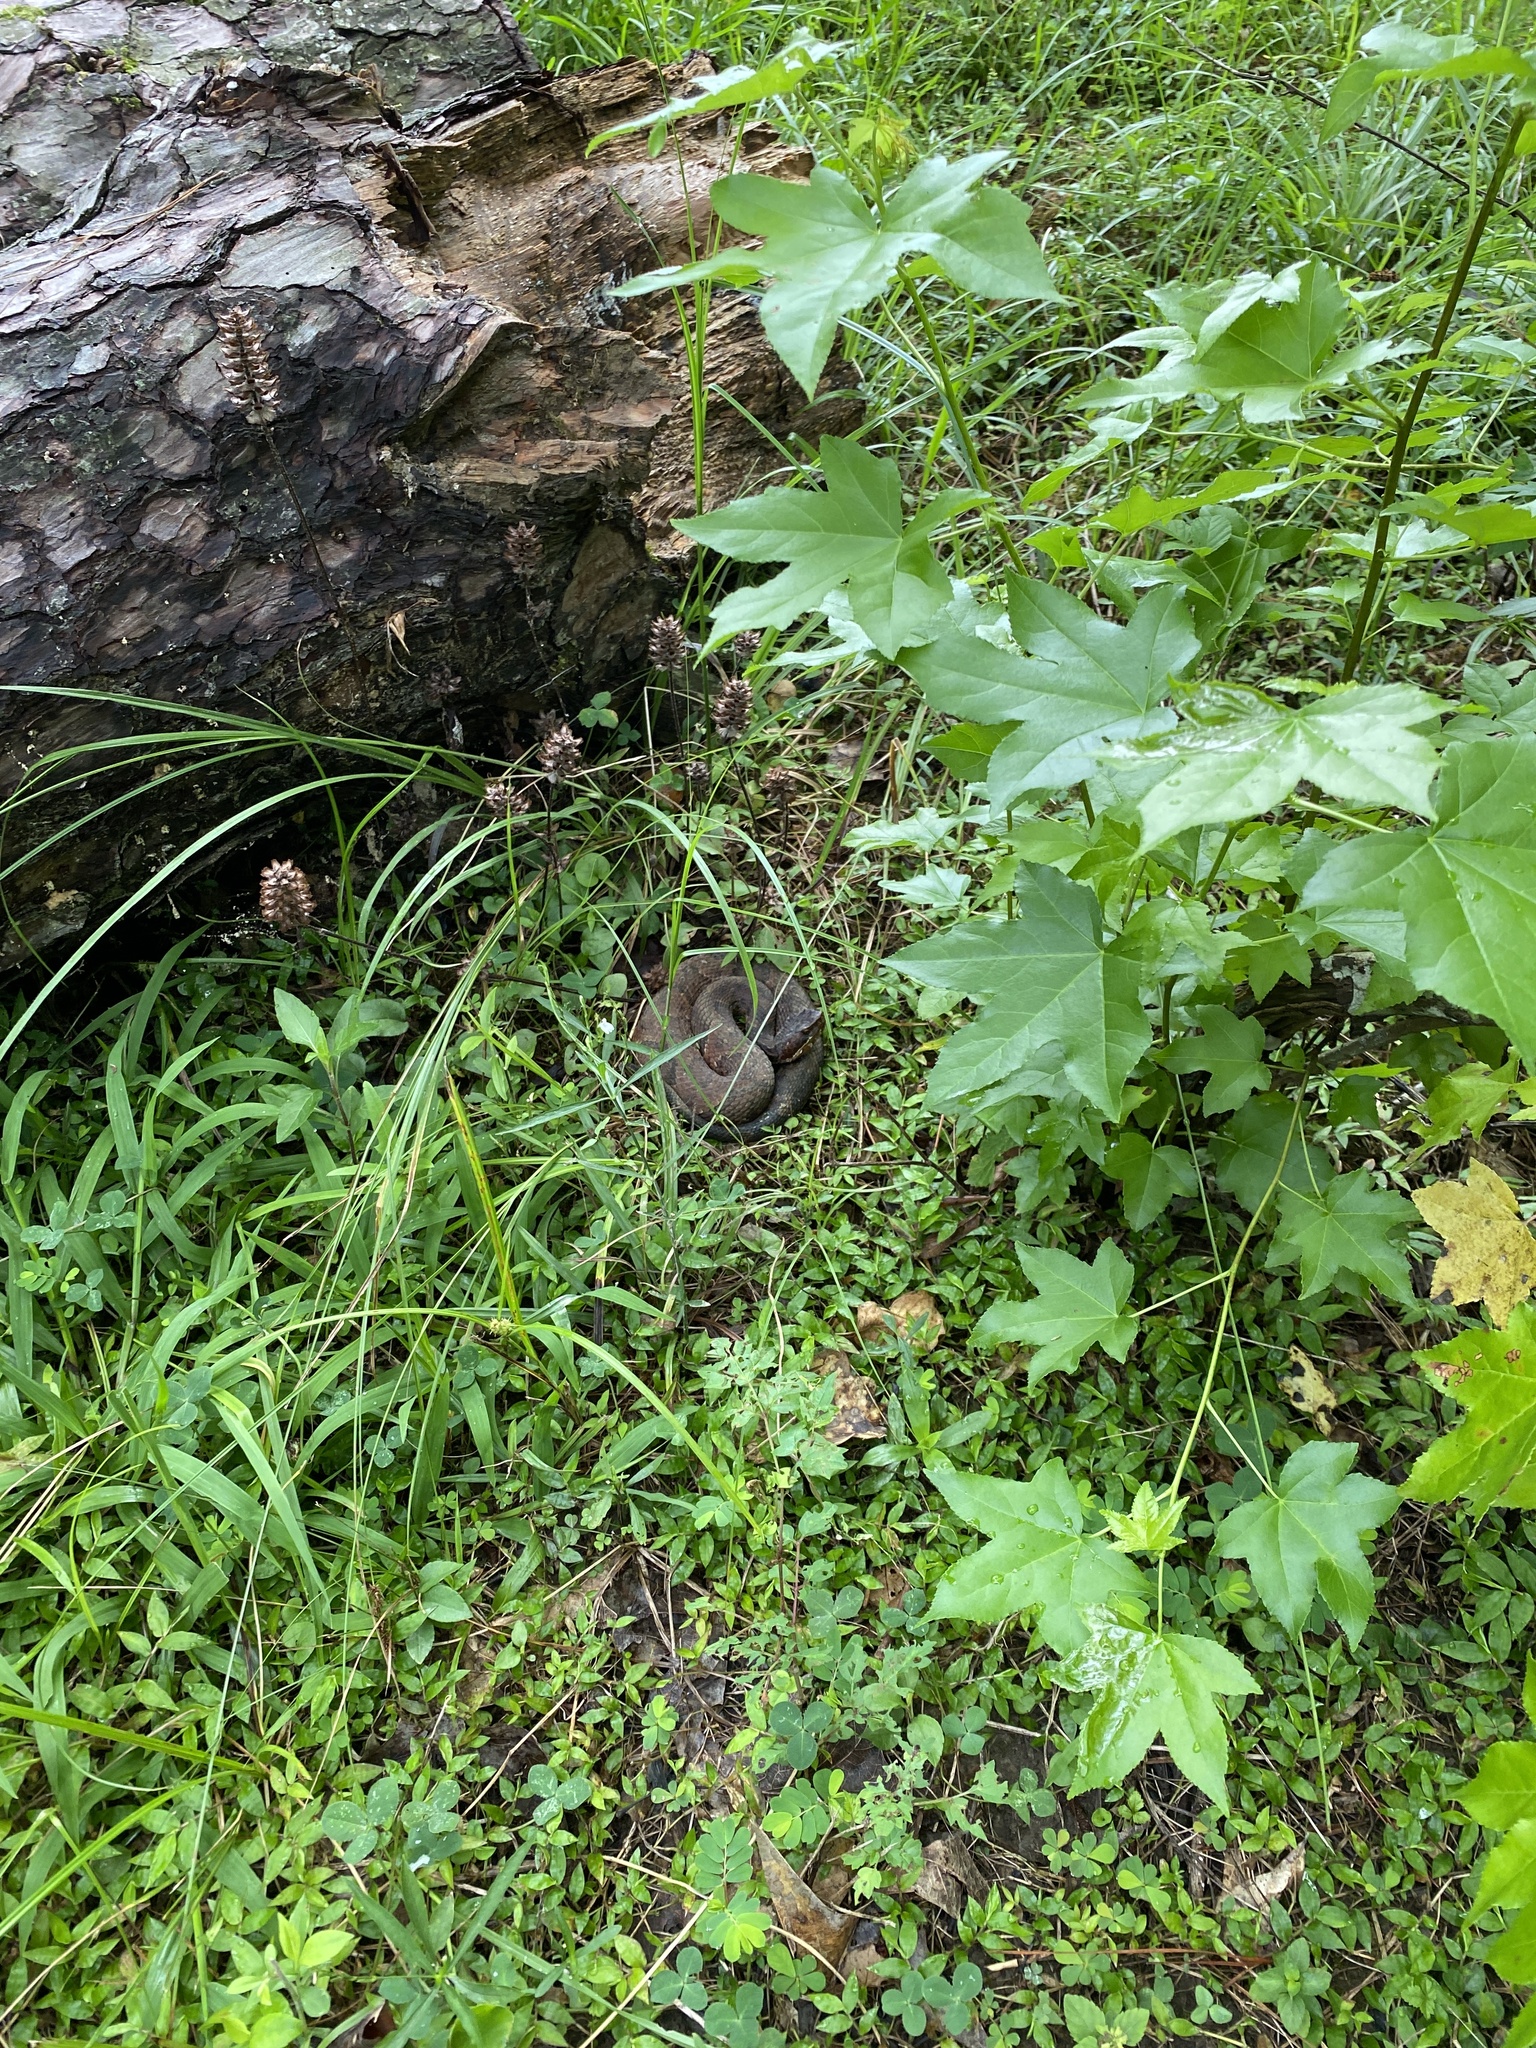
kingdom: Animalia
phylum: Chordata
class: Squamata
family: Viperidae
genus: Agkistrodon
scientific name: Agkistrodon piscivorus
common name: Cottonmouth
